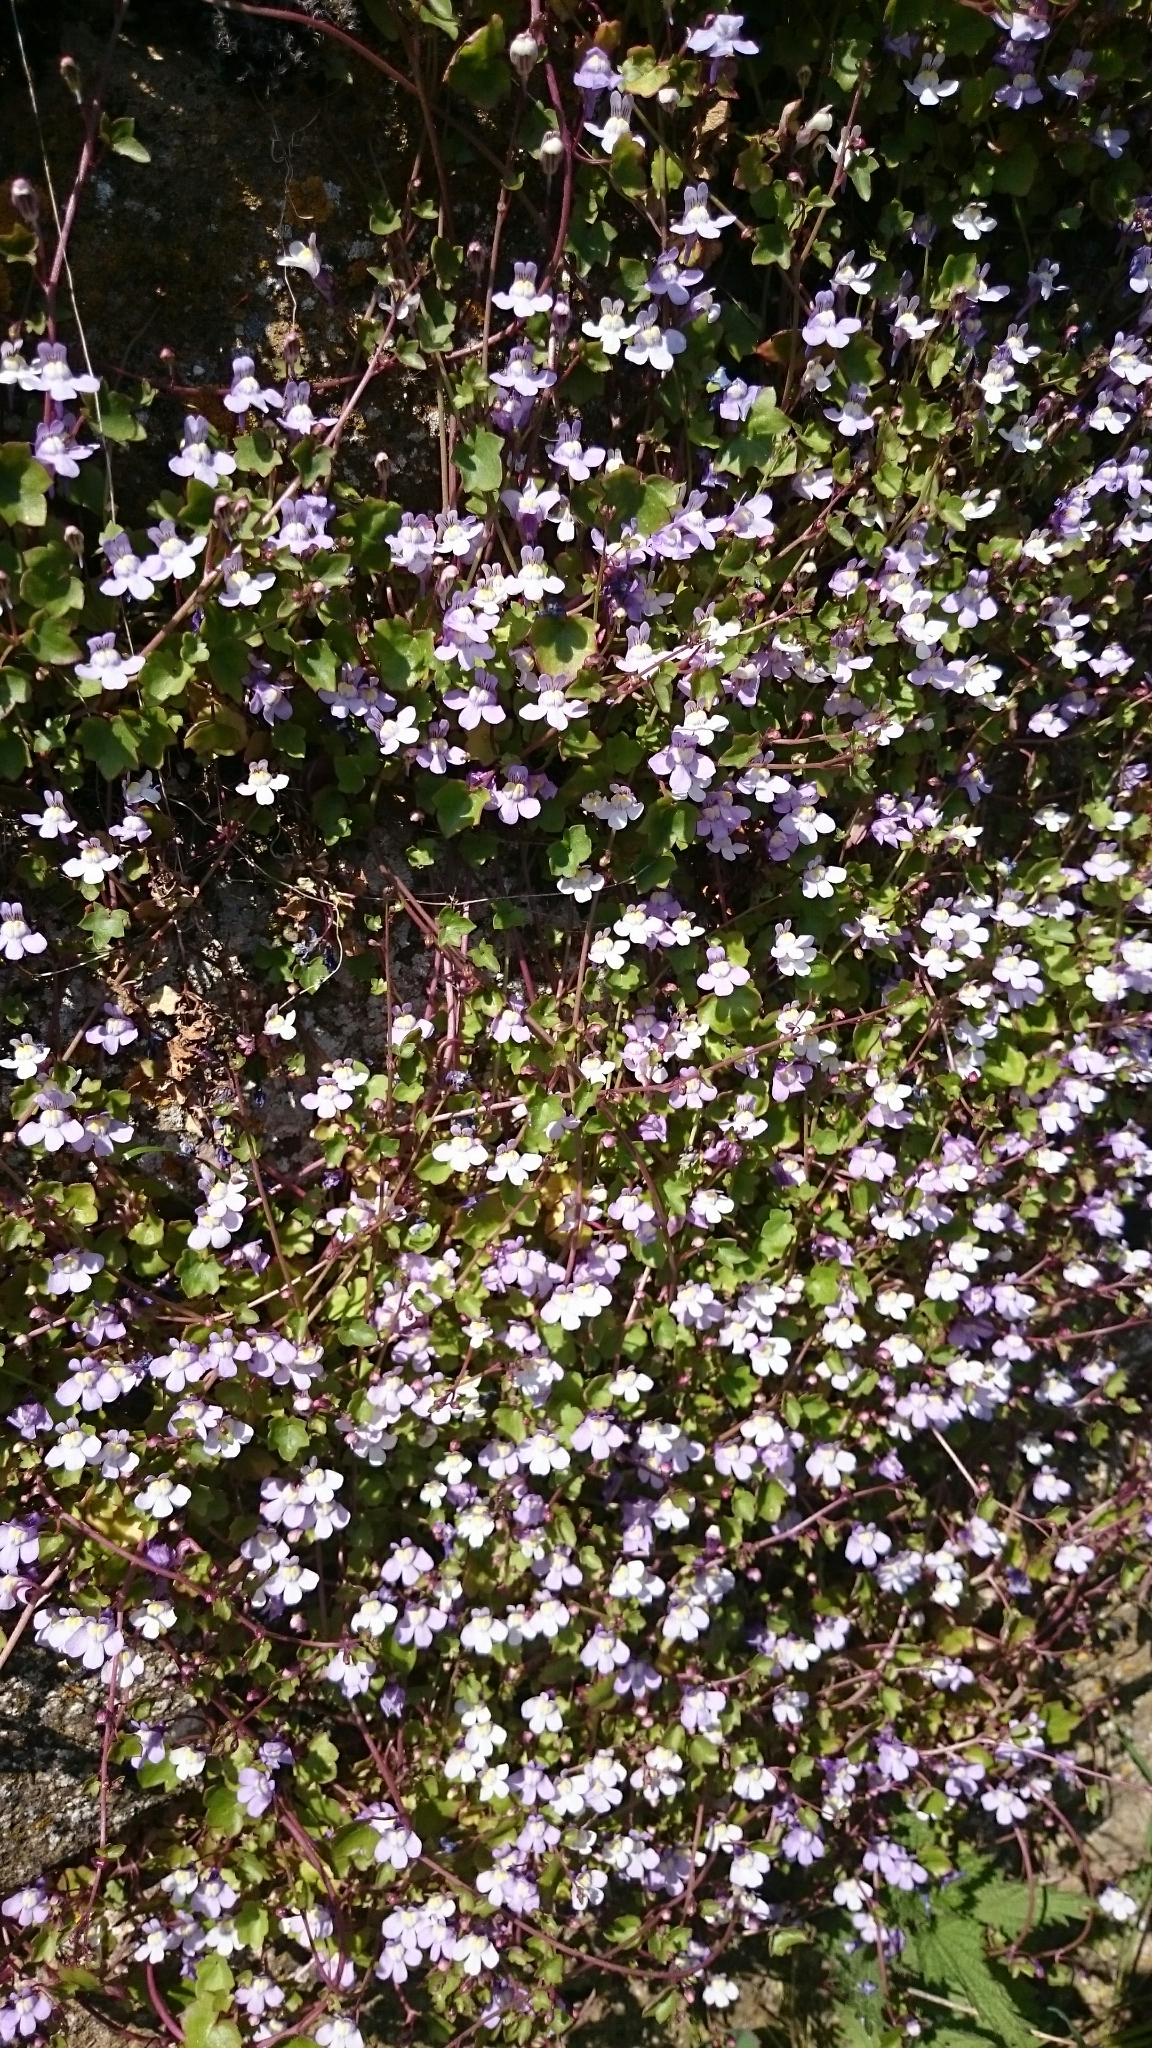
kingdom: Plantae
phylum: Tracheophyta
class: Magnoliopsida
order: Lamiales
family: Plantaginaceae
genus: Cymbalaria
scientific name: Cymbalaria muralis
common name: Ivy-leaved toadflax
